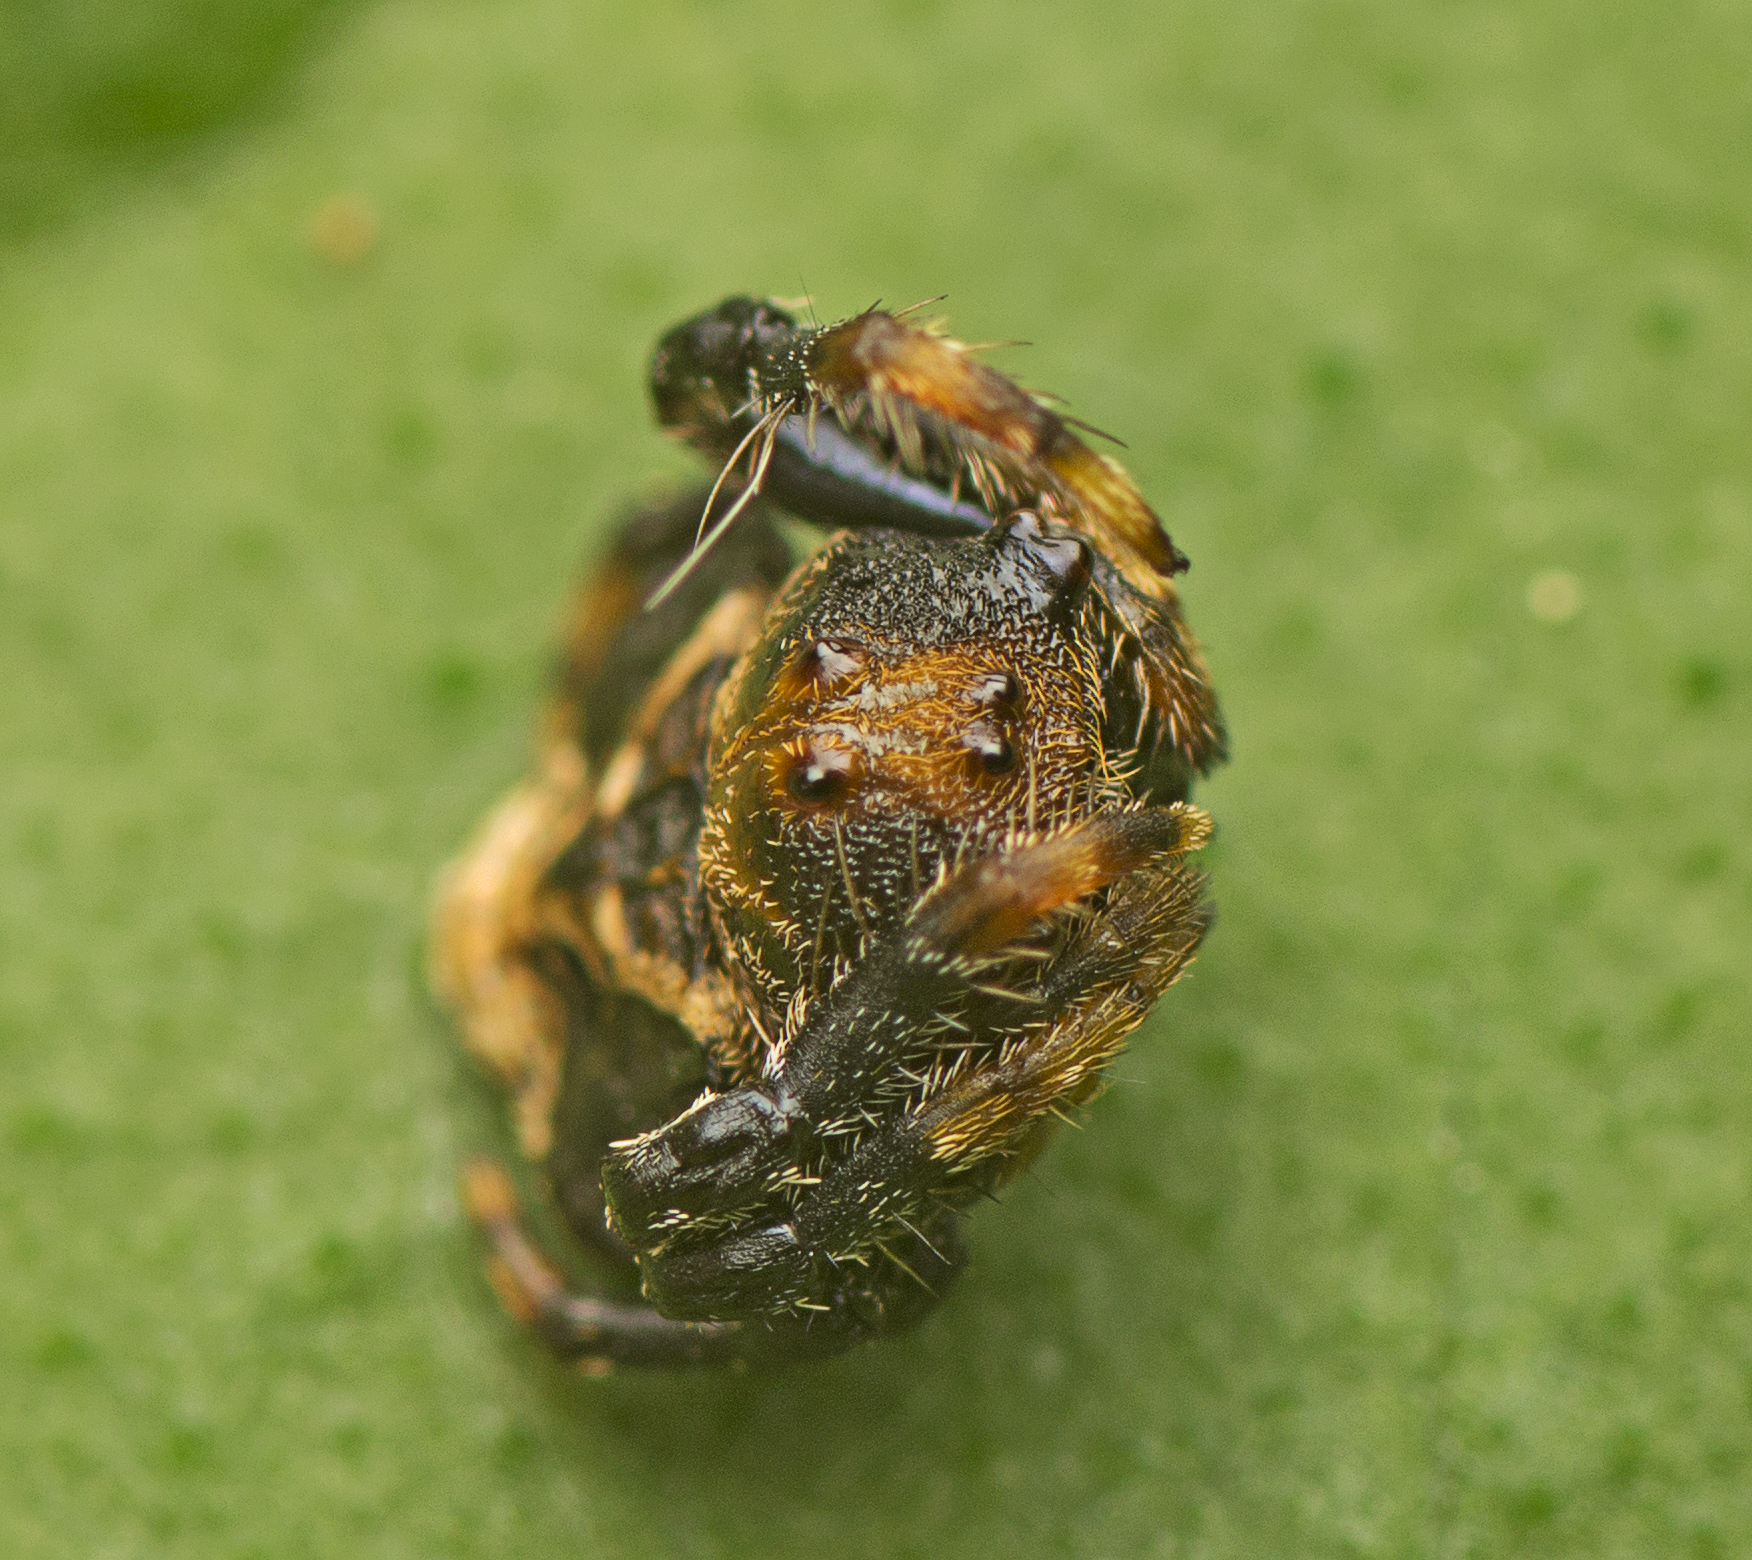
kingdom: Animalia
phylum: Arthropoda
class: Arachnida
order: Araneae
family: Arkyidae
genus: Arkys
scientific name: Arkys curtulus
